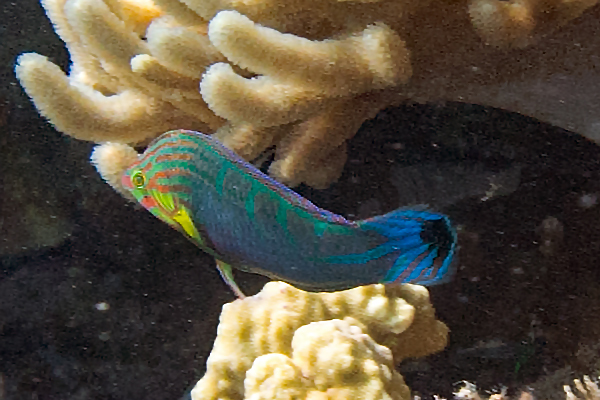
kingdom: Animalia
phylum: Chordata
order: Perciformes
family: Labridae
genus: Halichoeres
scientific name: Halichoeres melanurus
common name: Hoeven's wrasse
